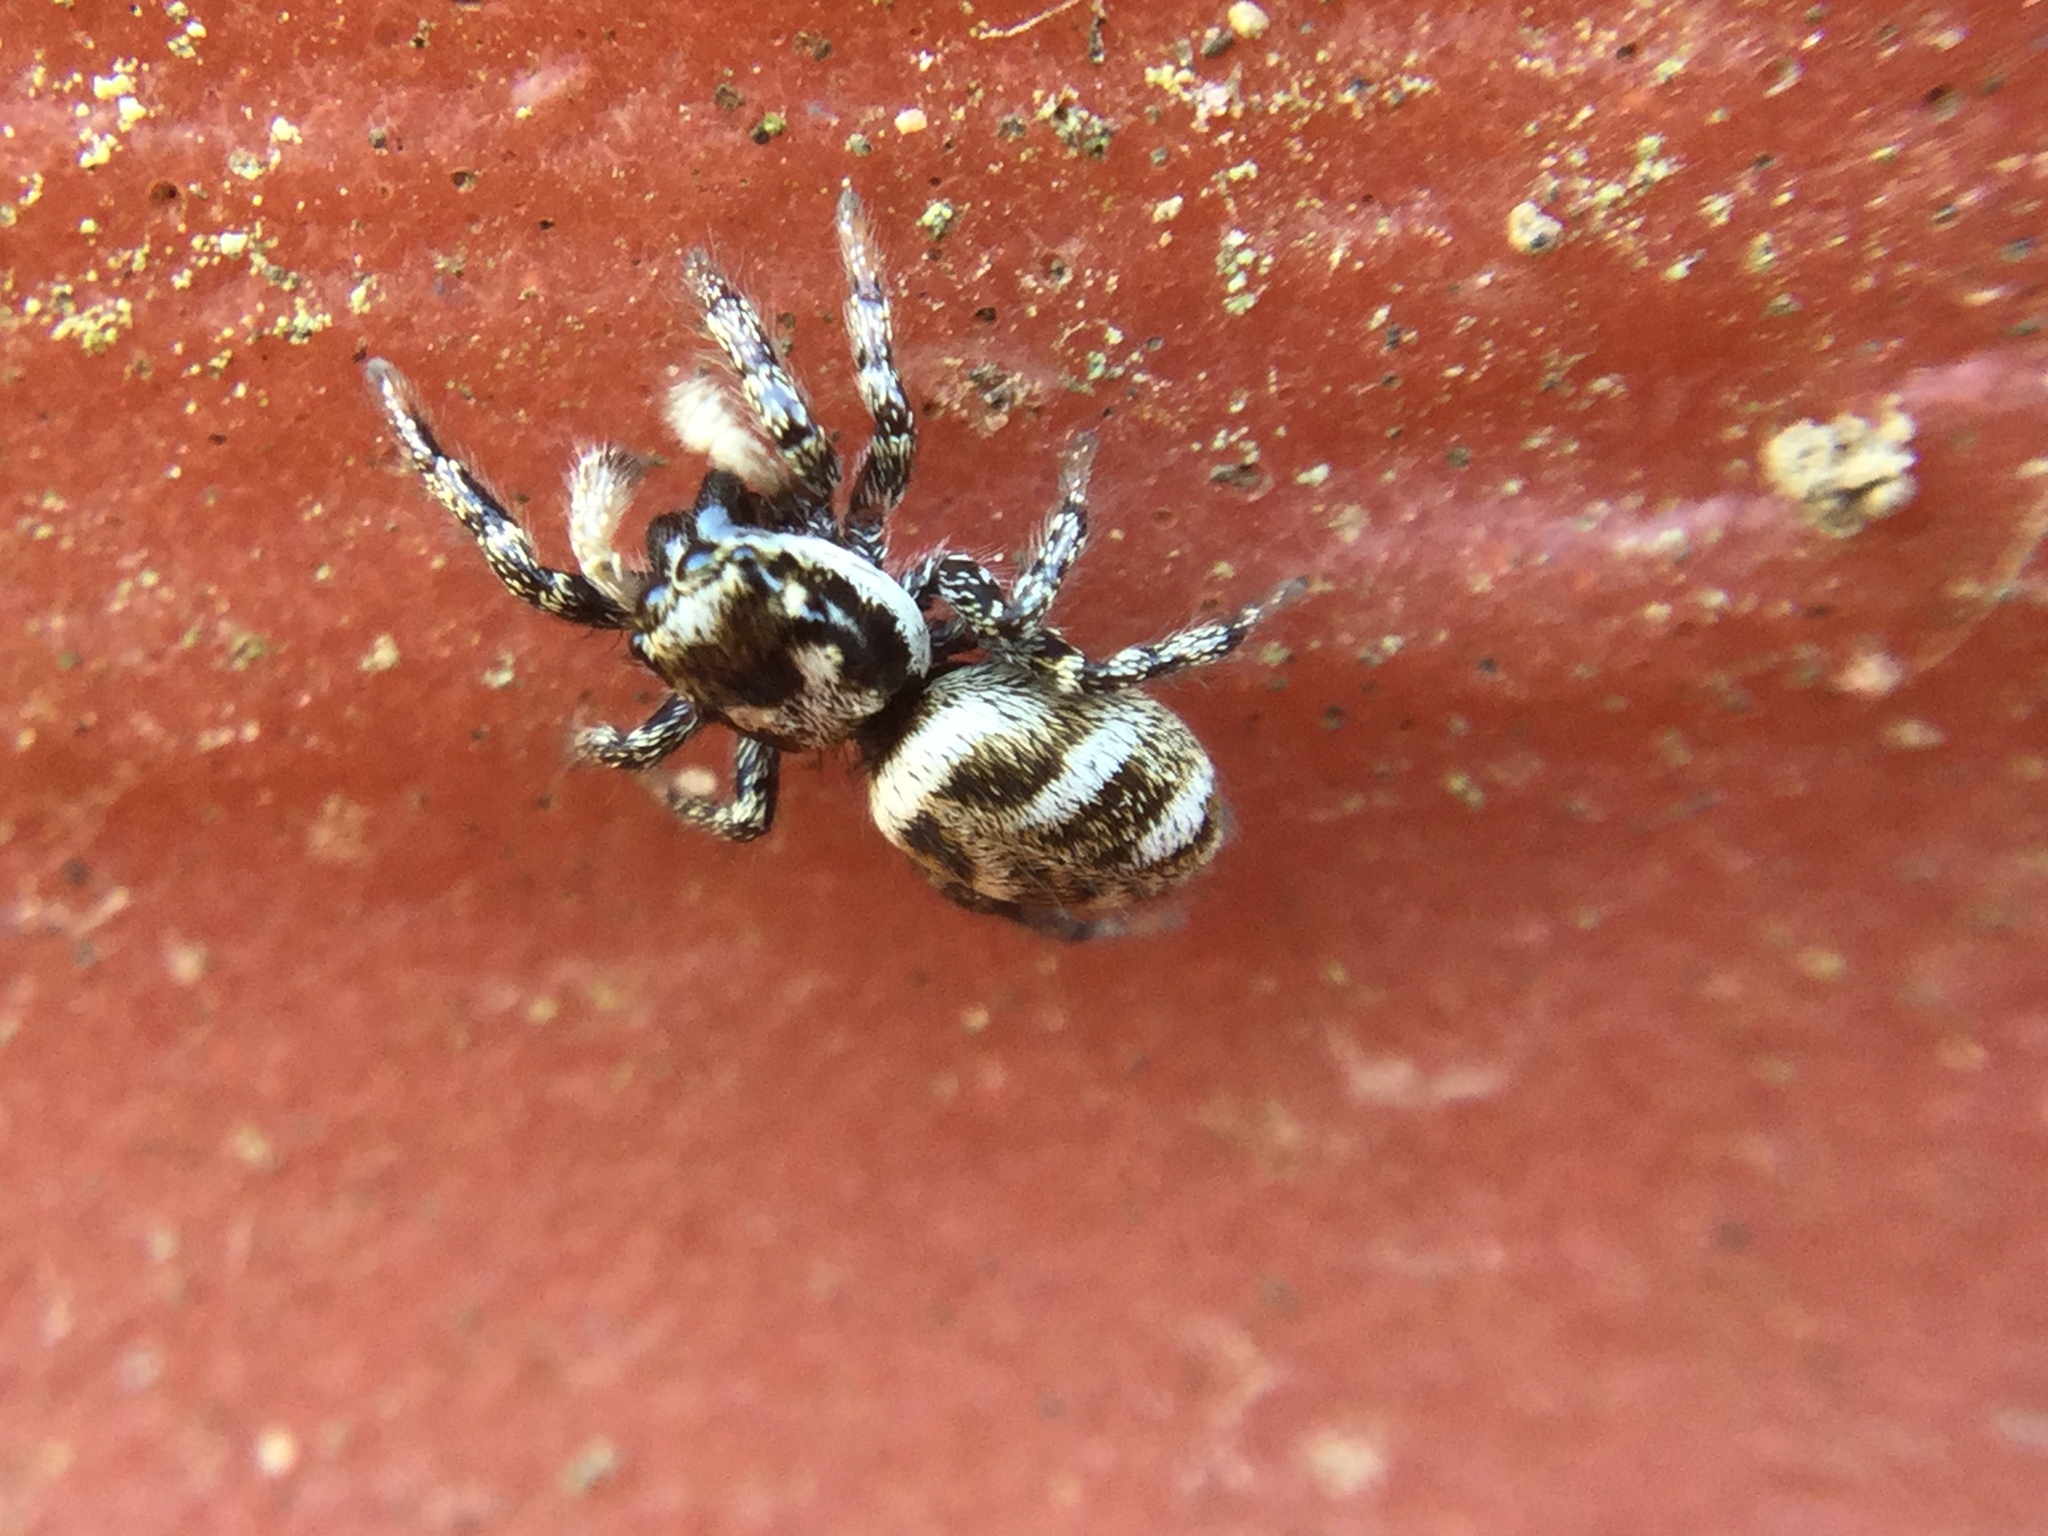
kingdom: Animalia
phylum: Arthropoda
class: Arachnida
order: Araneae
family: Salticidae
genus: Salticus
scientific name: Salticus scenicus
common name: Zebra jumper
